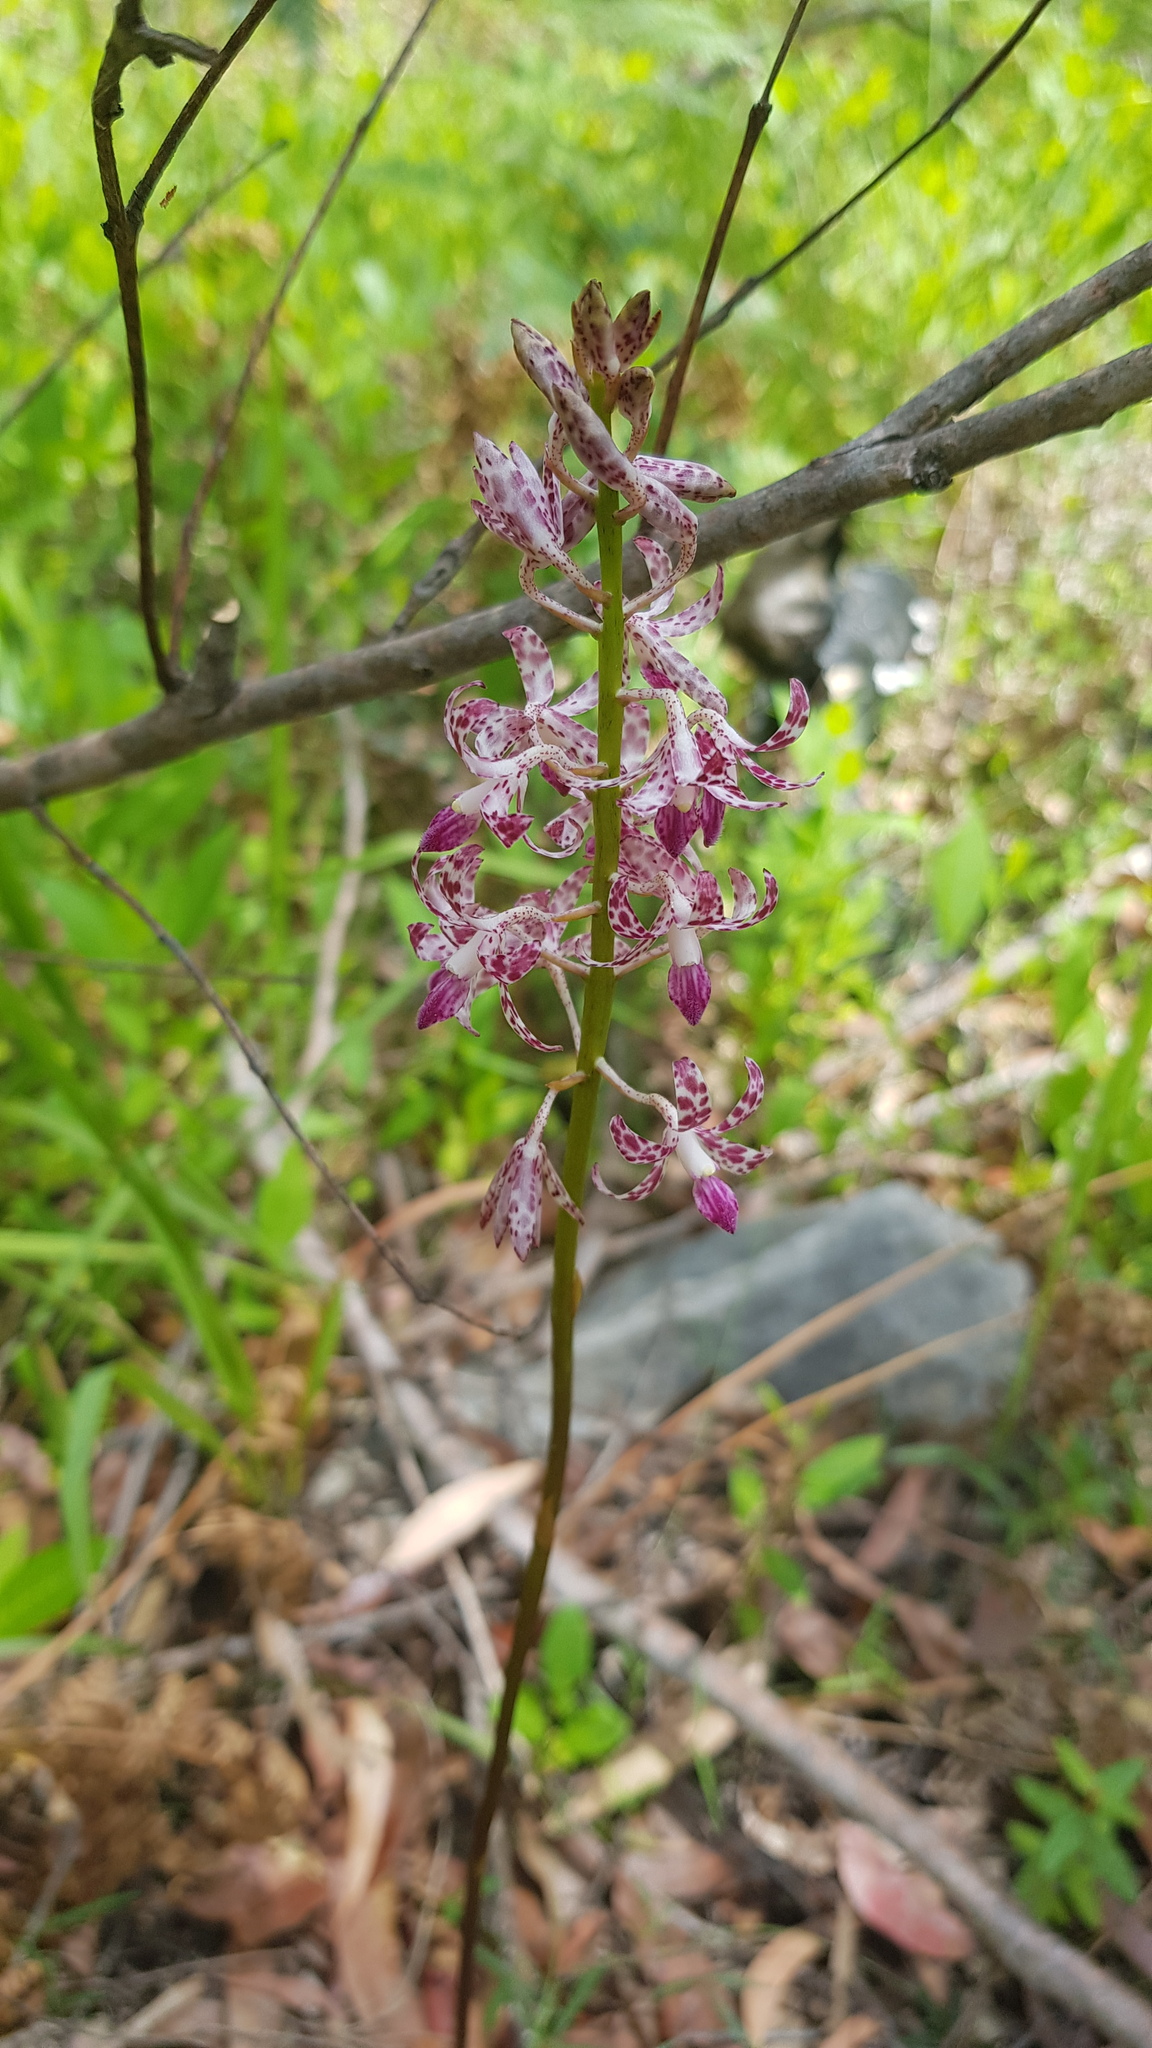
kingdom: Plantae
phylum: Tracheophyta
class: Liliopsida
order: Asparagales
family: Orchidaceae
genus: Dipodium
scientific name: Dipodium variegatum
